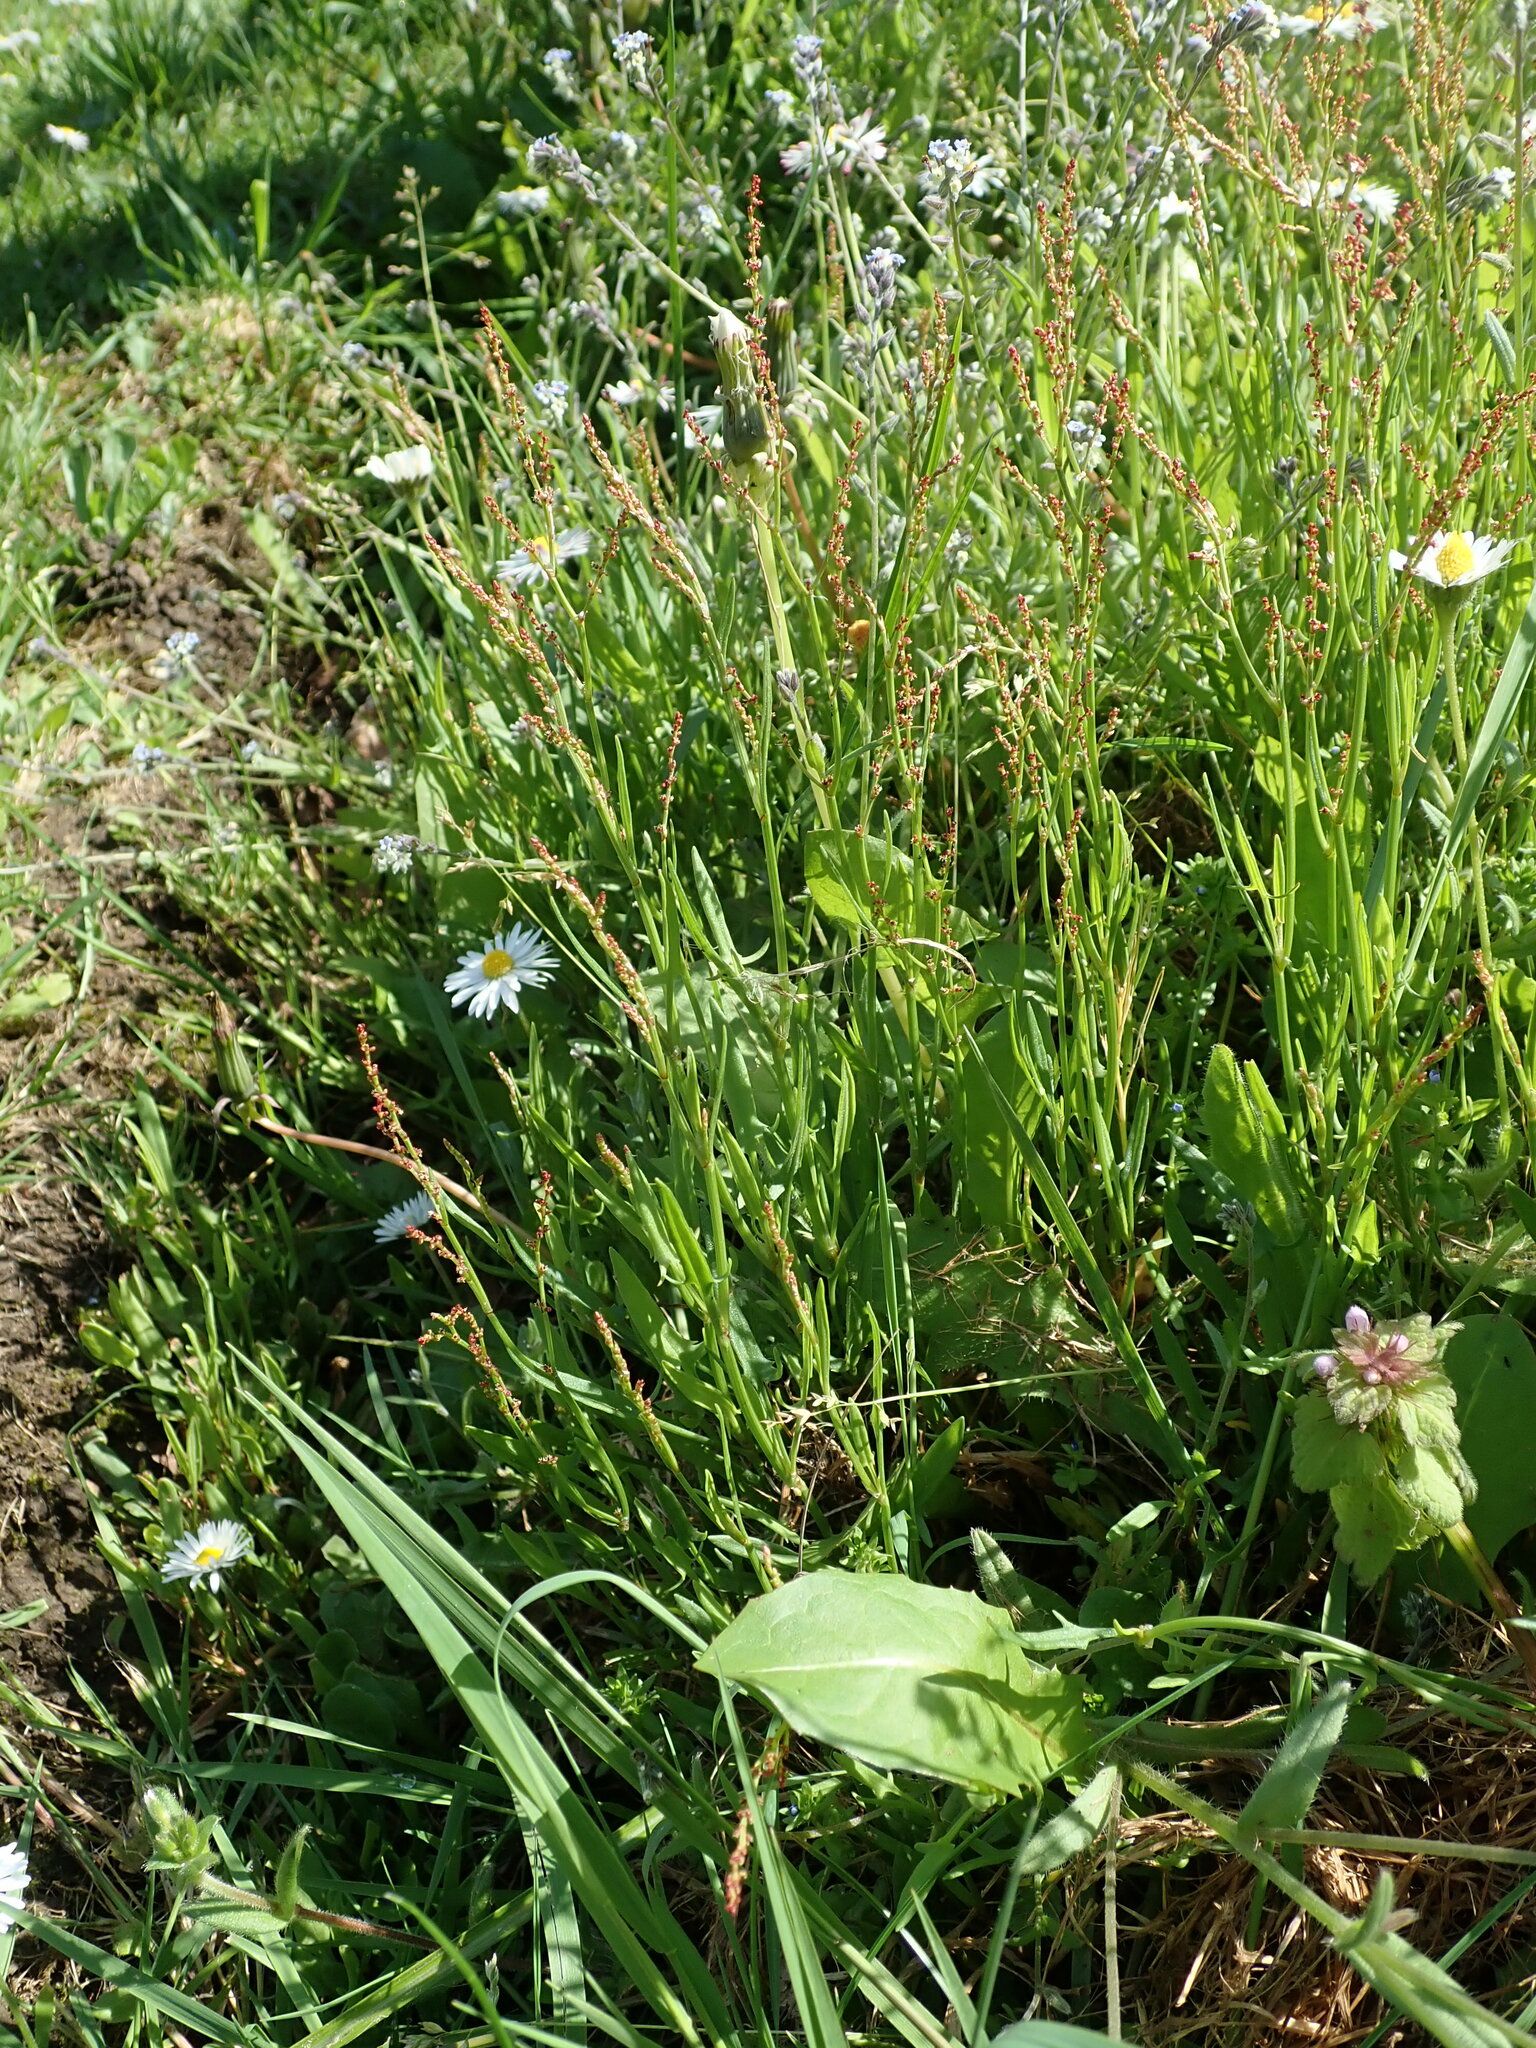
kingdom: Plantae
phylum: Tracheophyta
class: Magnoliopsida
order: Caryophyllales
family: Polygonaceae
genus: Rumex
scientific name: Rumex acetosella
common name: Common sheep sorrel
